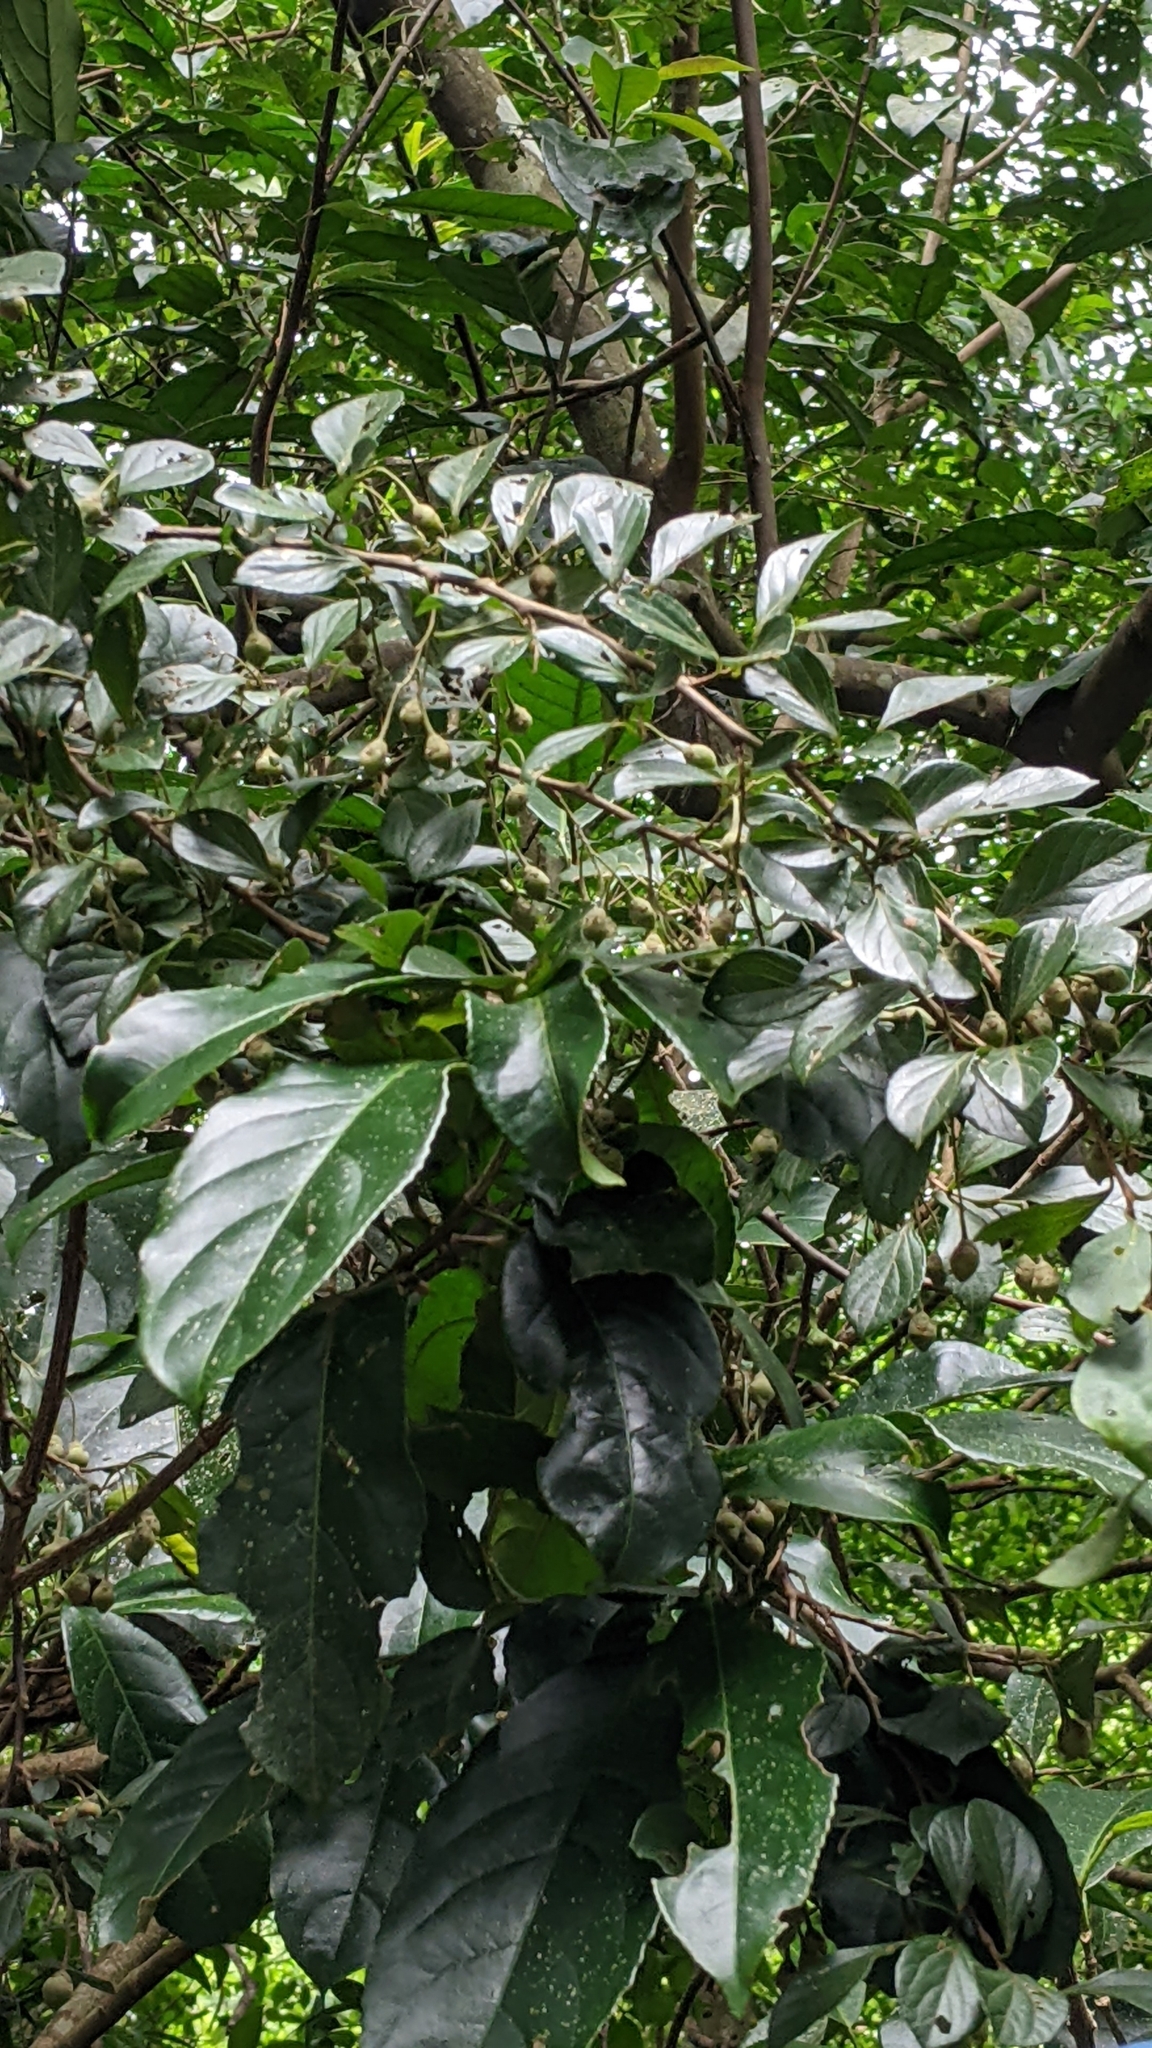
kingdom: Plantae
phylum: Tracheophyta
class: Magnoliopsida
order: Ericales
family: Styracaceae
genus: Styrax
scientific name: Styrax formosanus
